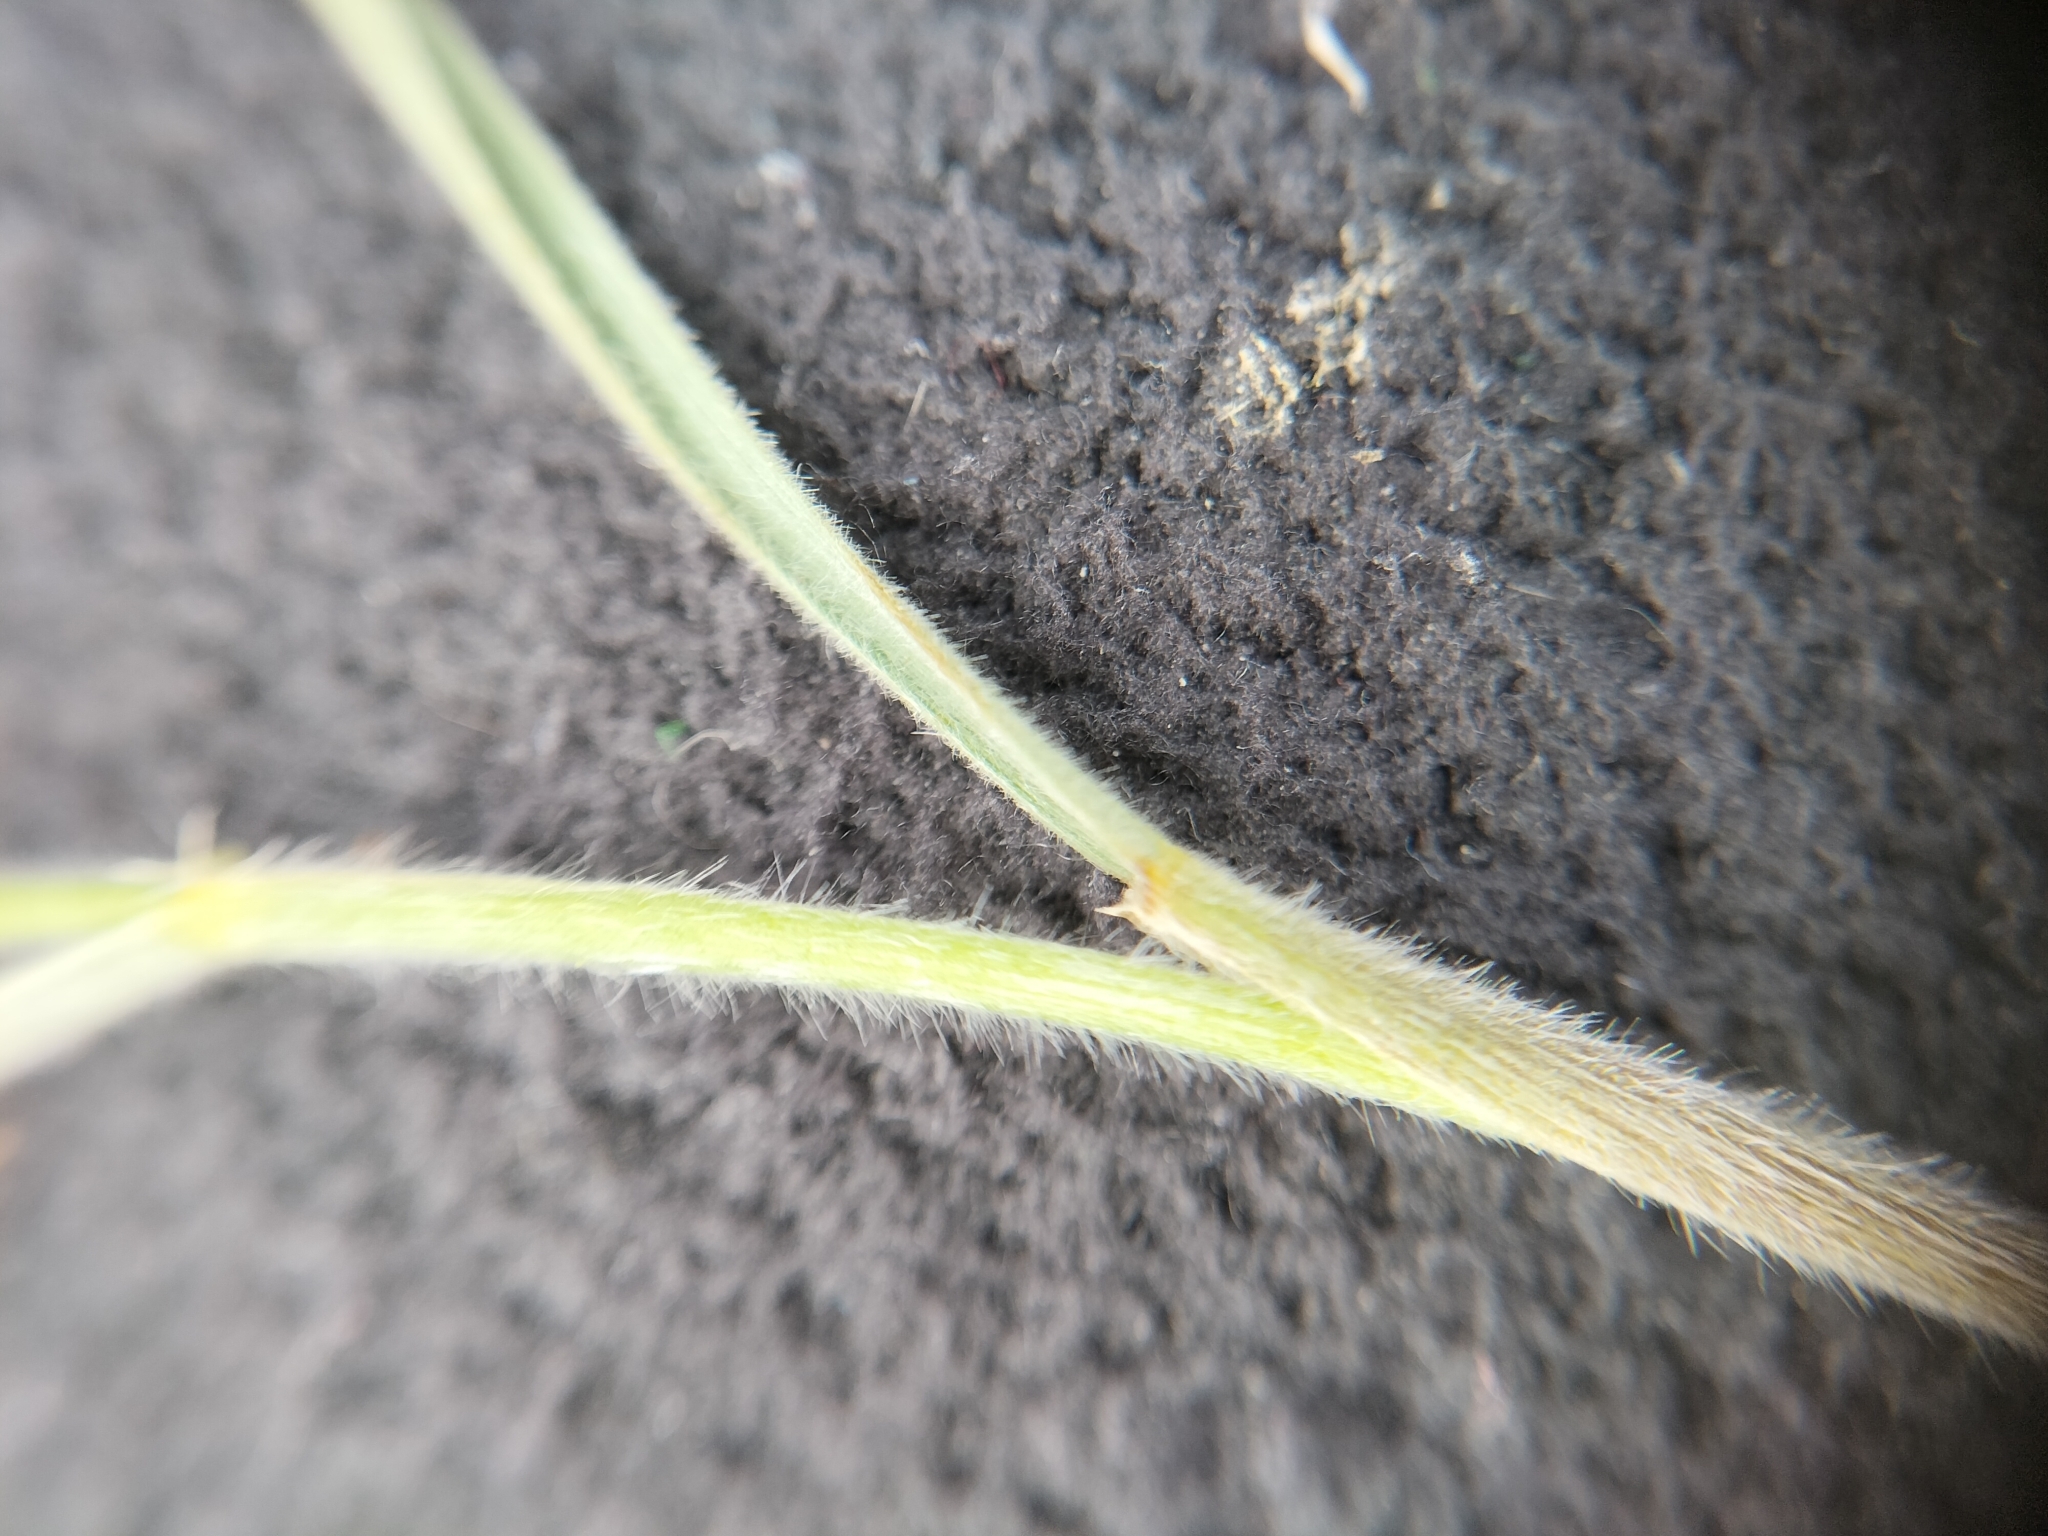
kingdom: Plantae
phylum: Tracheophyta
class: Liliopsida
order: Poales
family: Poaceae
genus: Anthosachne
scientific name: Anthosachne solandri
